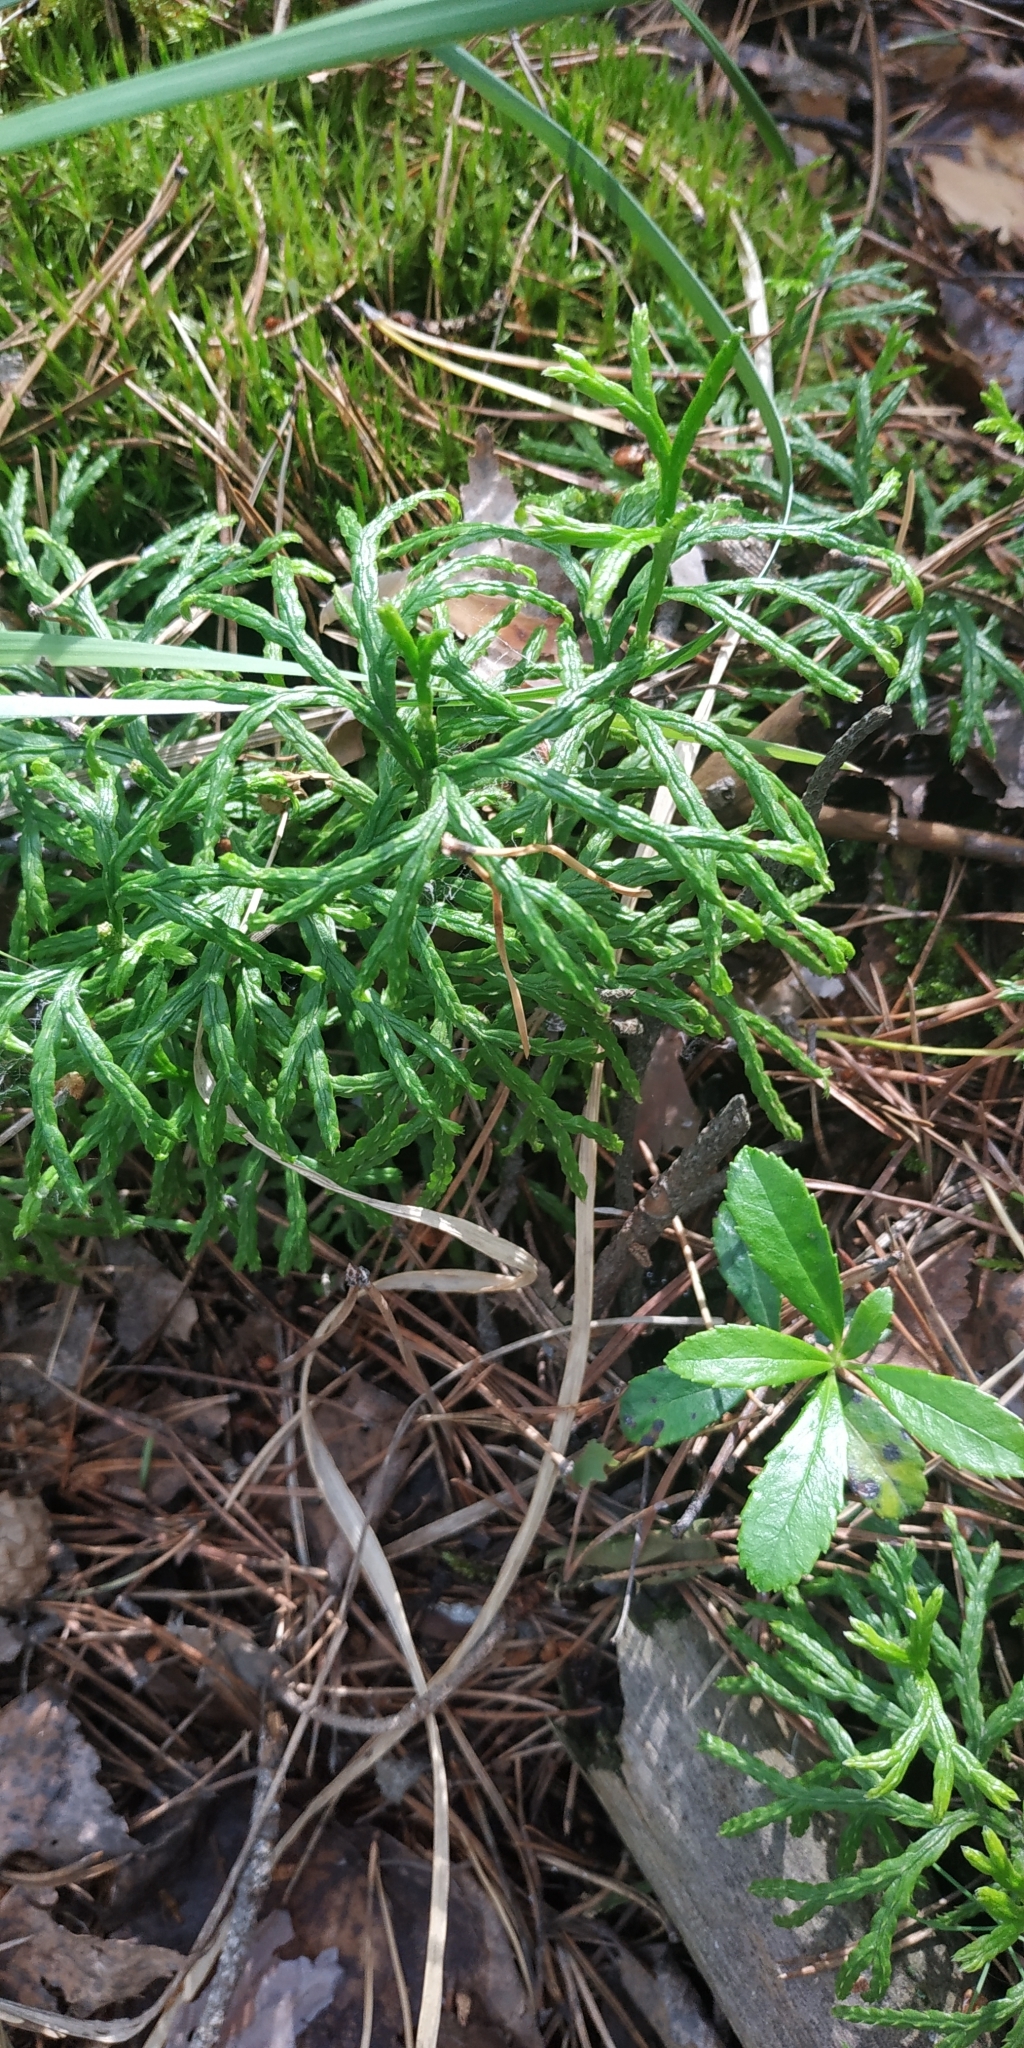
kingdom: Plantae
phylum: Tracheophyta
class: Lycopodiopsida
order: Lycopodiales
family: Lycopodiaceae
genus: Diphasiastrum
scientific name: Diphasiastrum complanatum
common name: Northern running-pine
